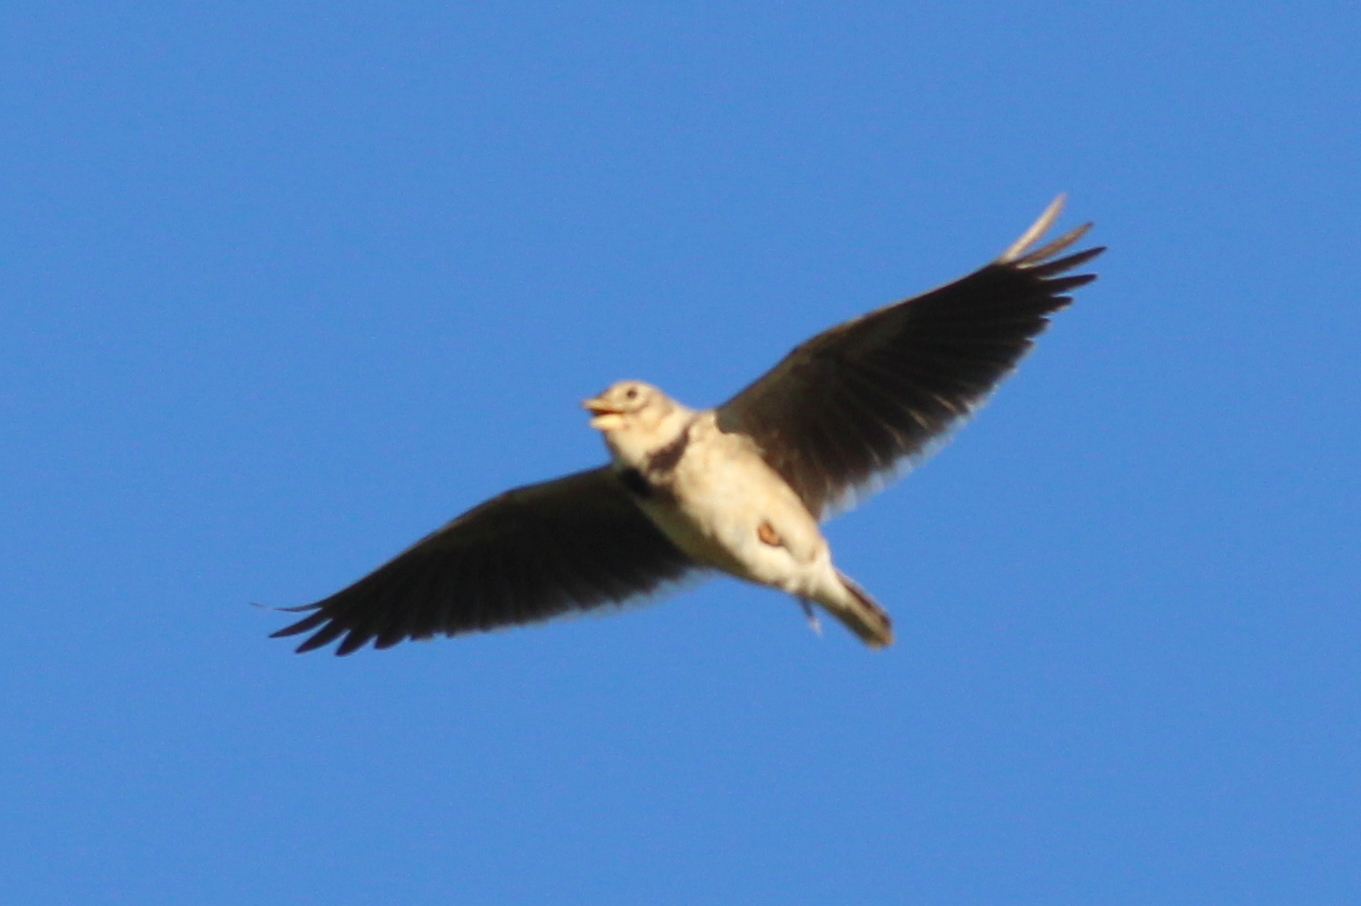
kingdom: Animalia
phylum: Chordata
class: Aves
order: Passeriformes
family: Alaudidae
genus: Melanocorypha
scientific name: Melanocorypha calandra
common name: Calandra lark
